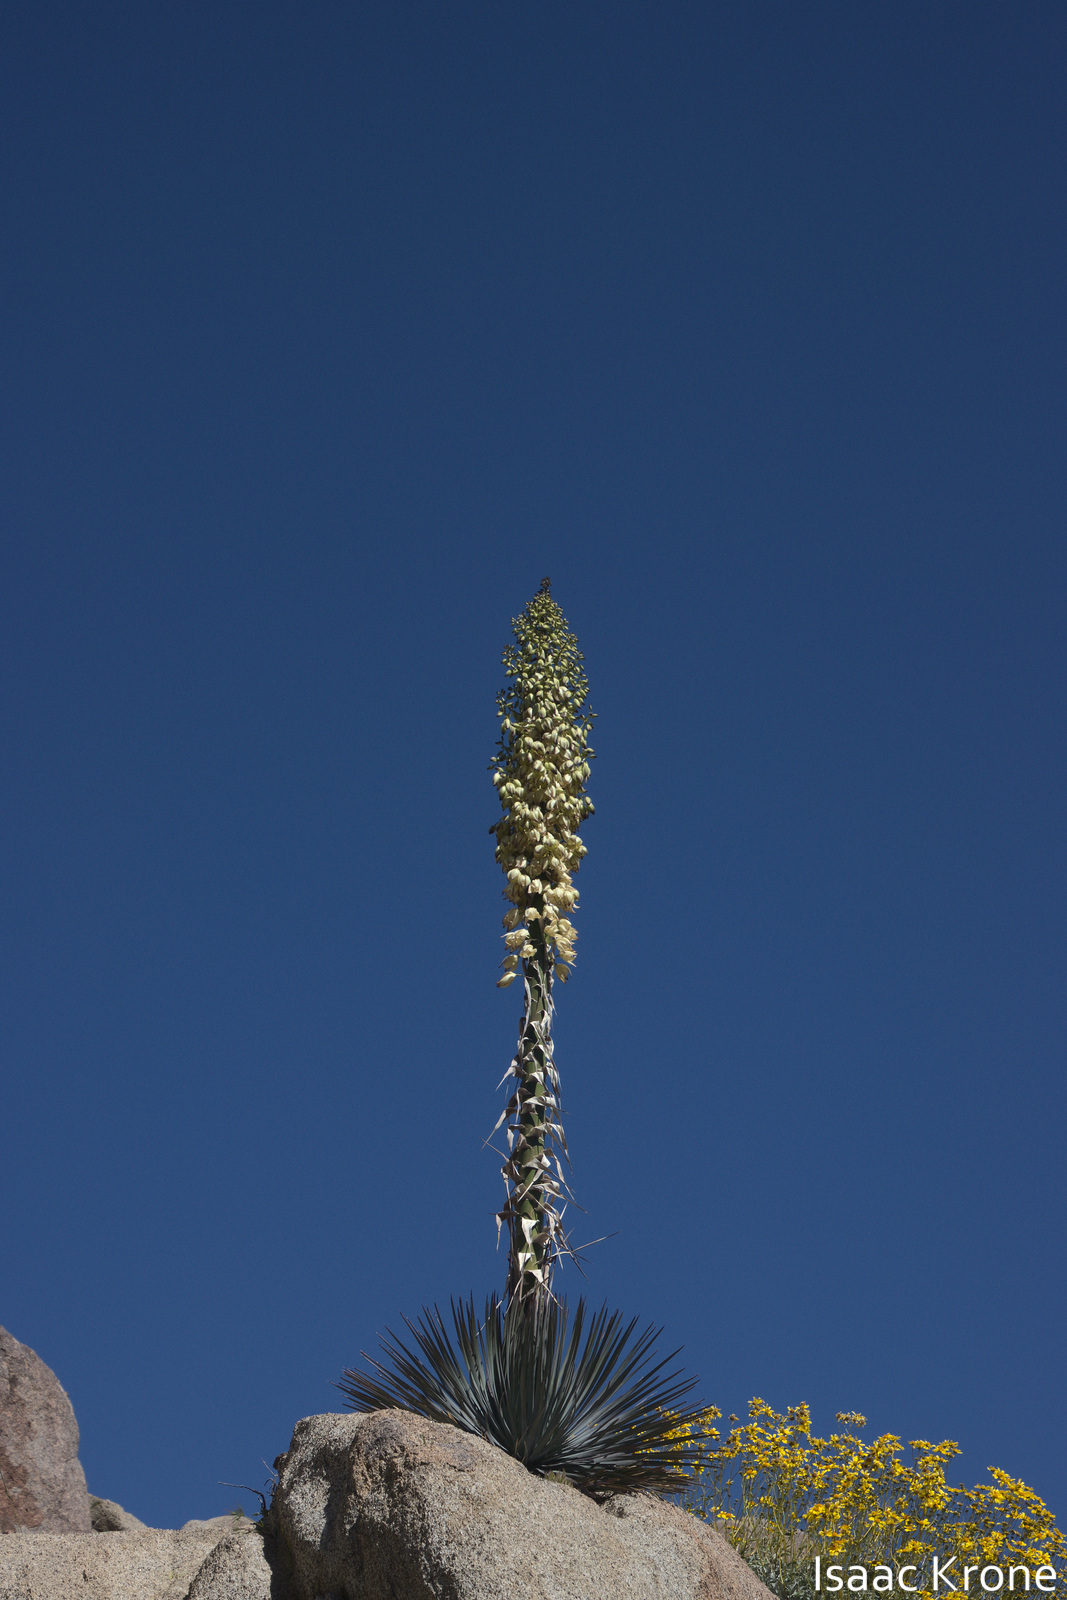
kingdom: Plantae
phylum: Tracheophyta
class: Liliopsida
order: Asparagales
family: Asparagaceae
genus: Hesperoyucca
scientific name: Hesperoyucca whipplei
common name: Our lord's-candle
